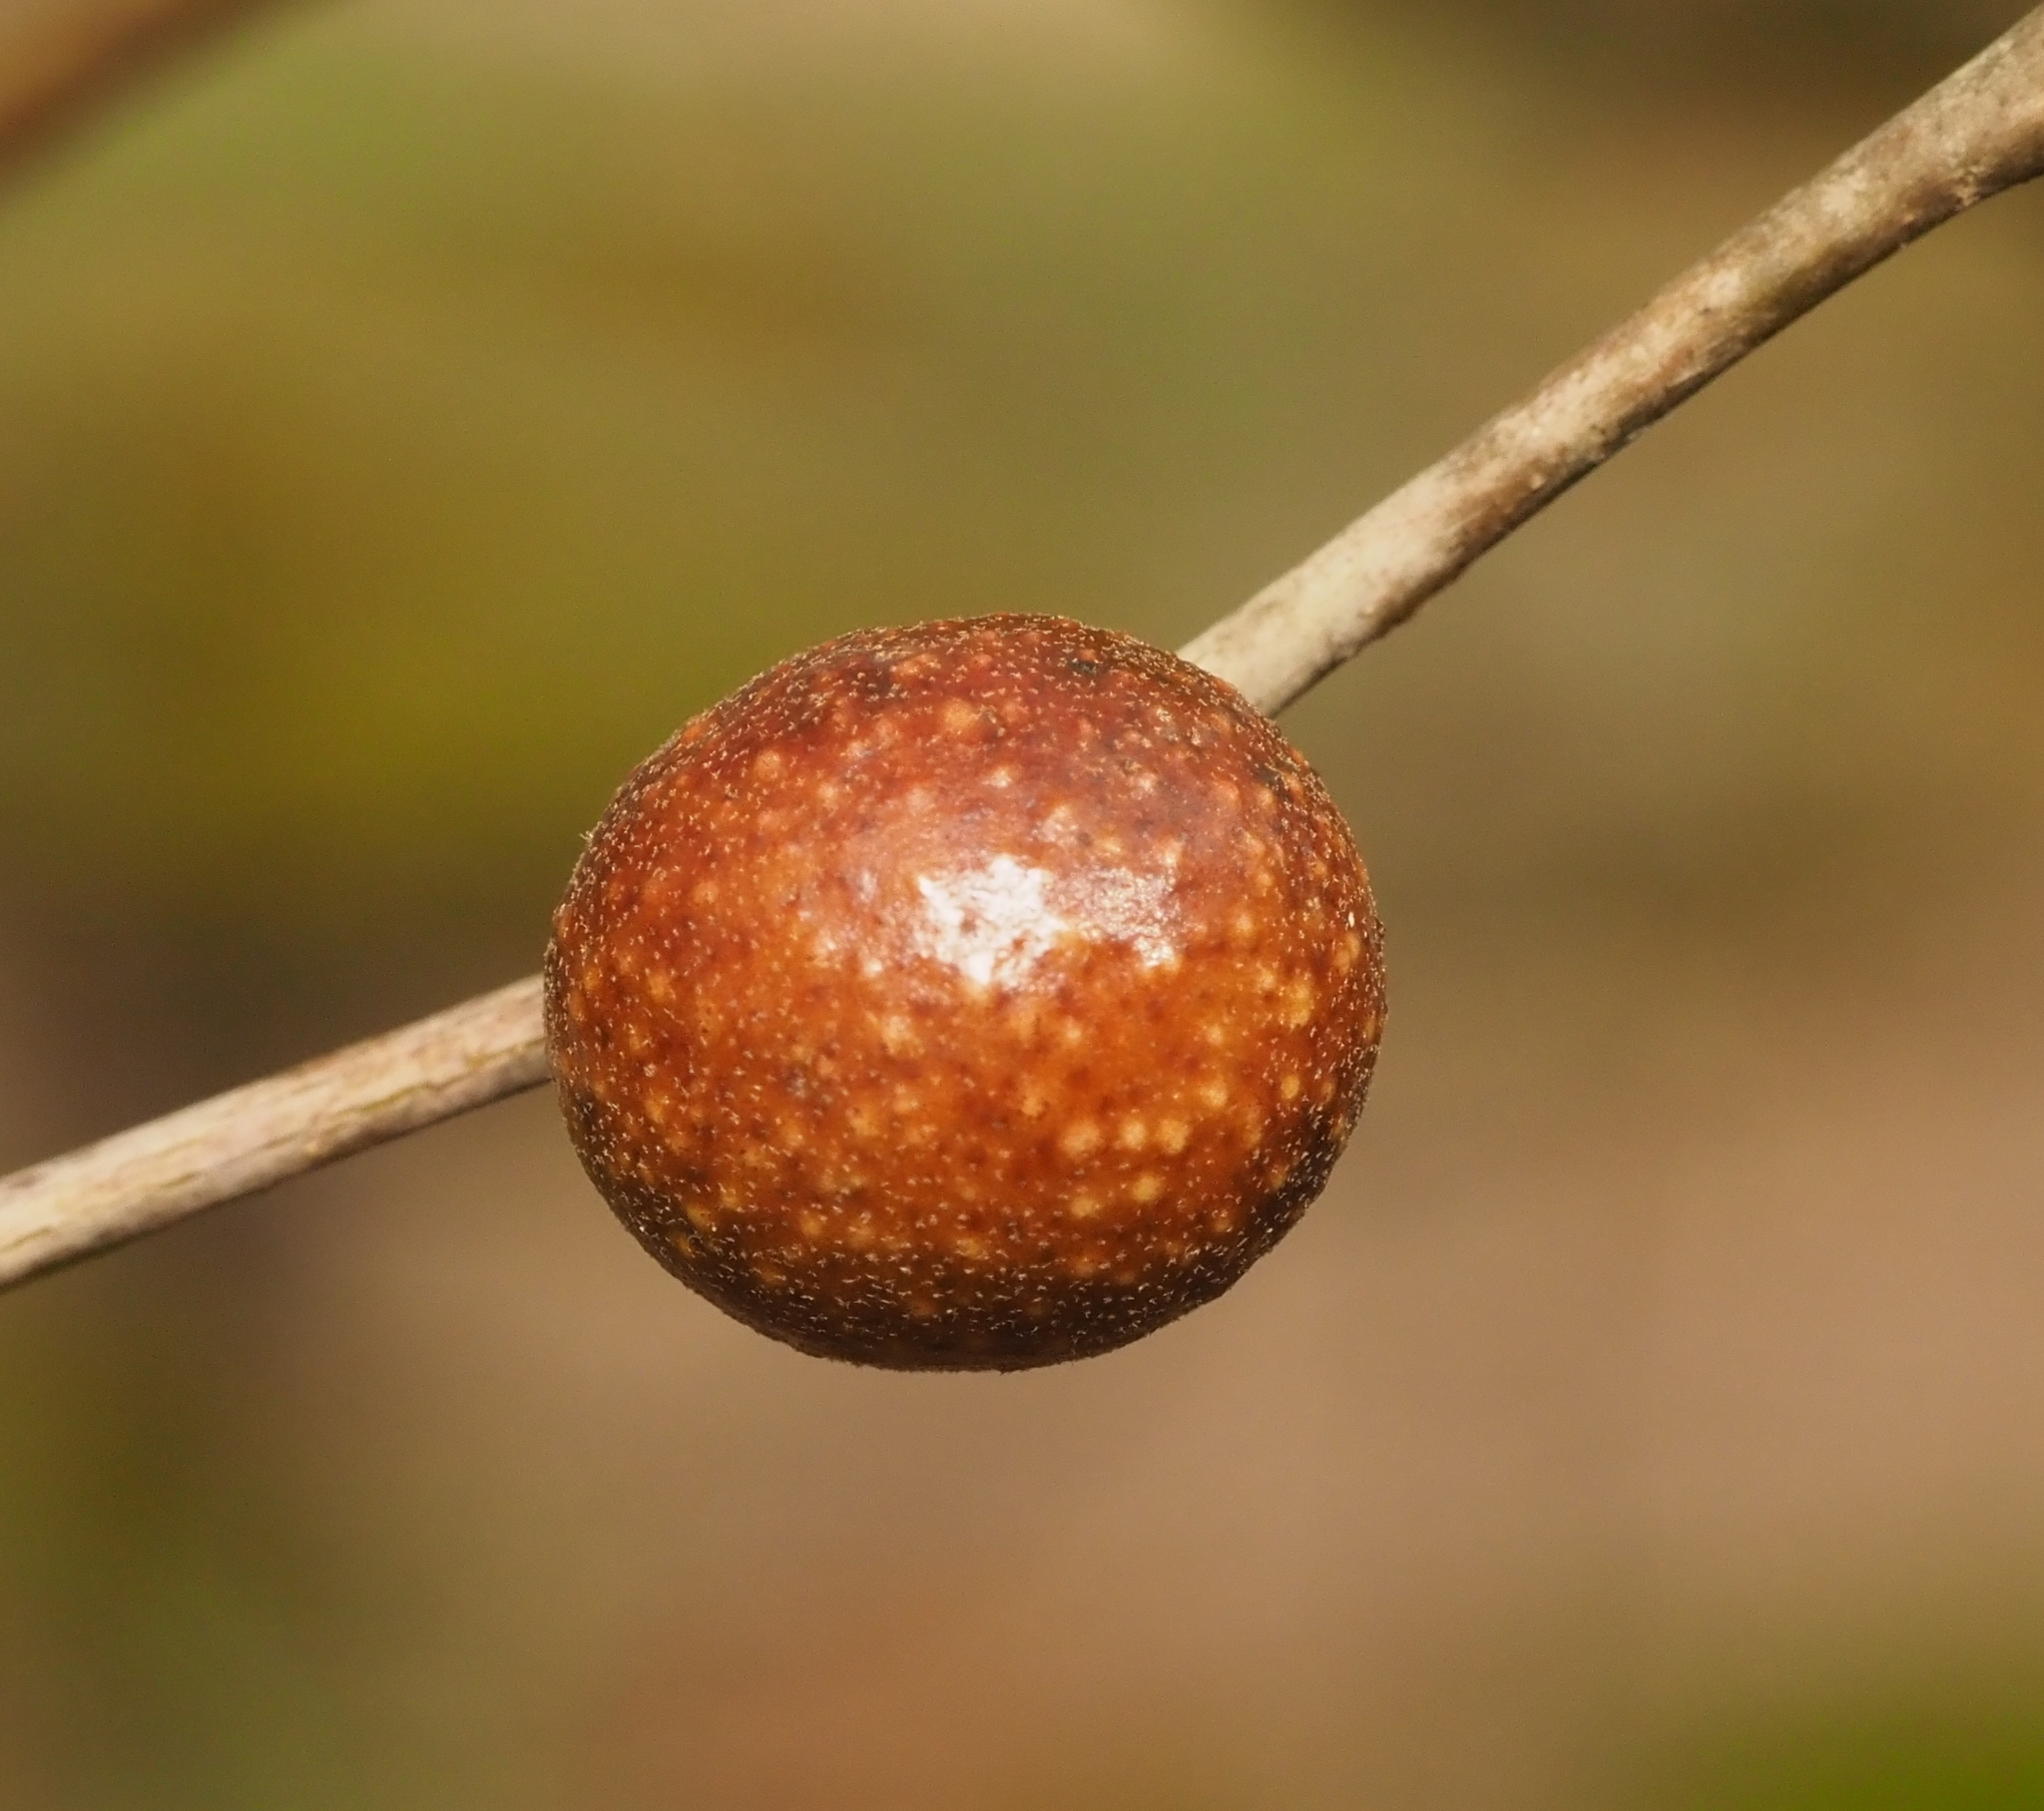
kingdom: Animalia
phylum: Arthropoda
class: Insecta
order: Hymenoptera
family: Cynipidae
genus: Disholcaspis
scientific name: Disholcaspis quercusglobulus
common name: Round bullet gall wasp
